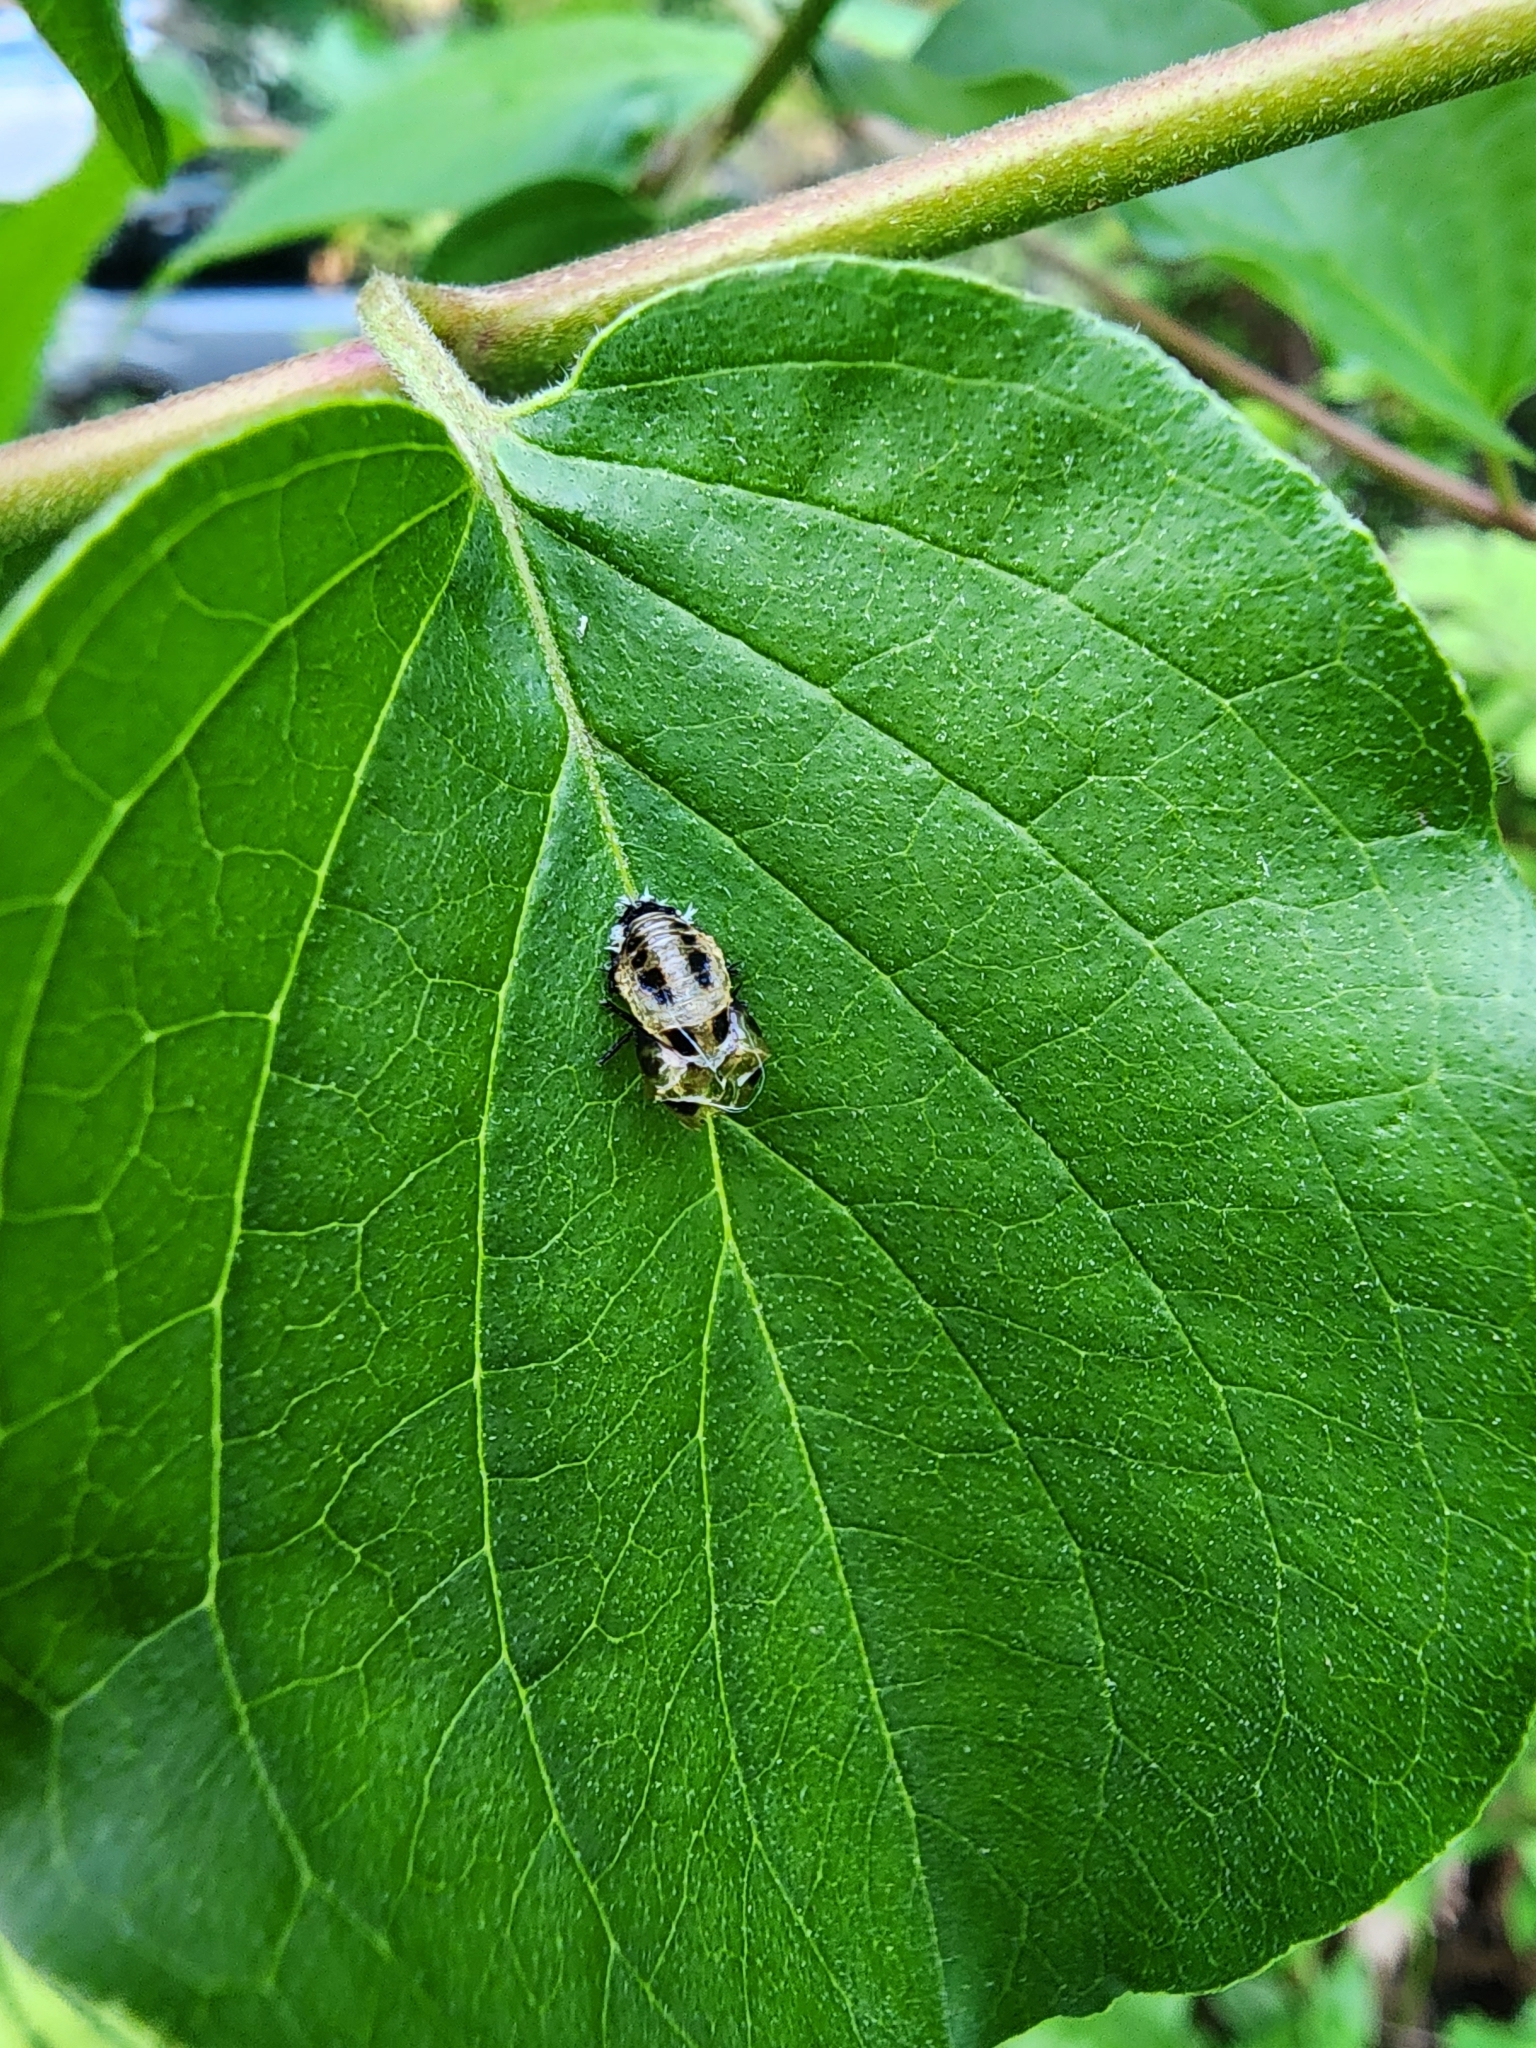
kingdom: Animalia
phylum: Arthropoda
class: Insecta
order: Coleoptera
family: Coccinellidae
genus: Harmonia
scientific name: Harmonia axyridis
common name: Harlequin ladybird
